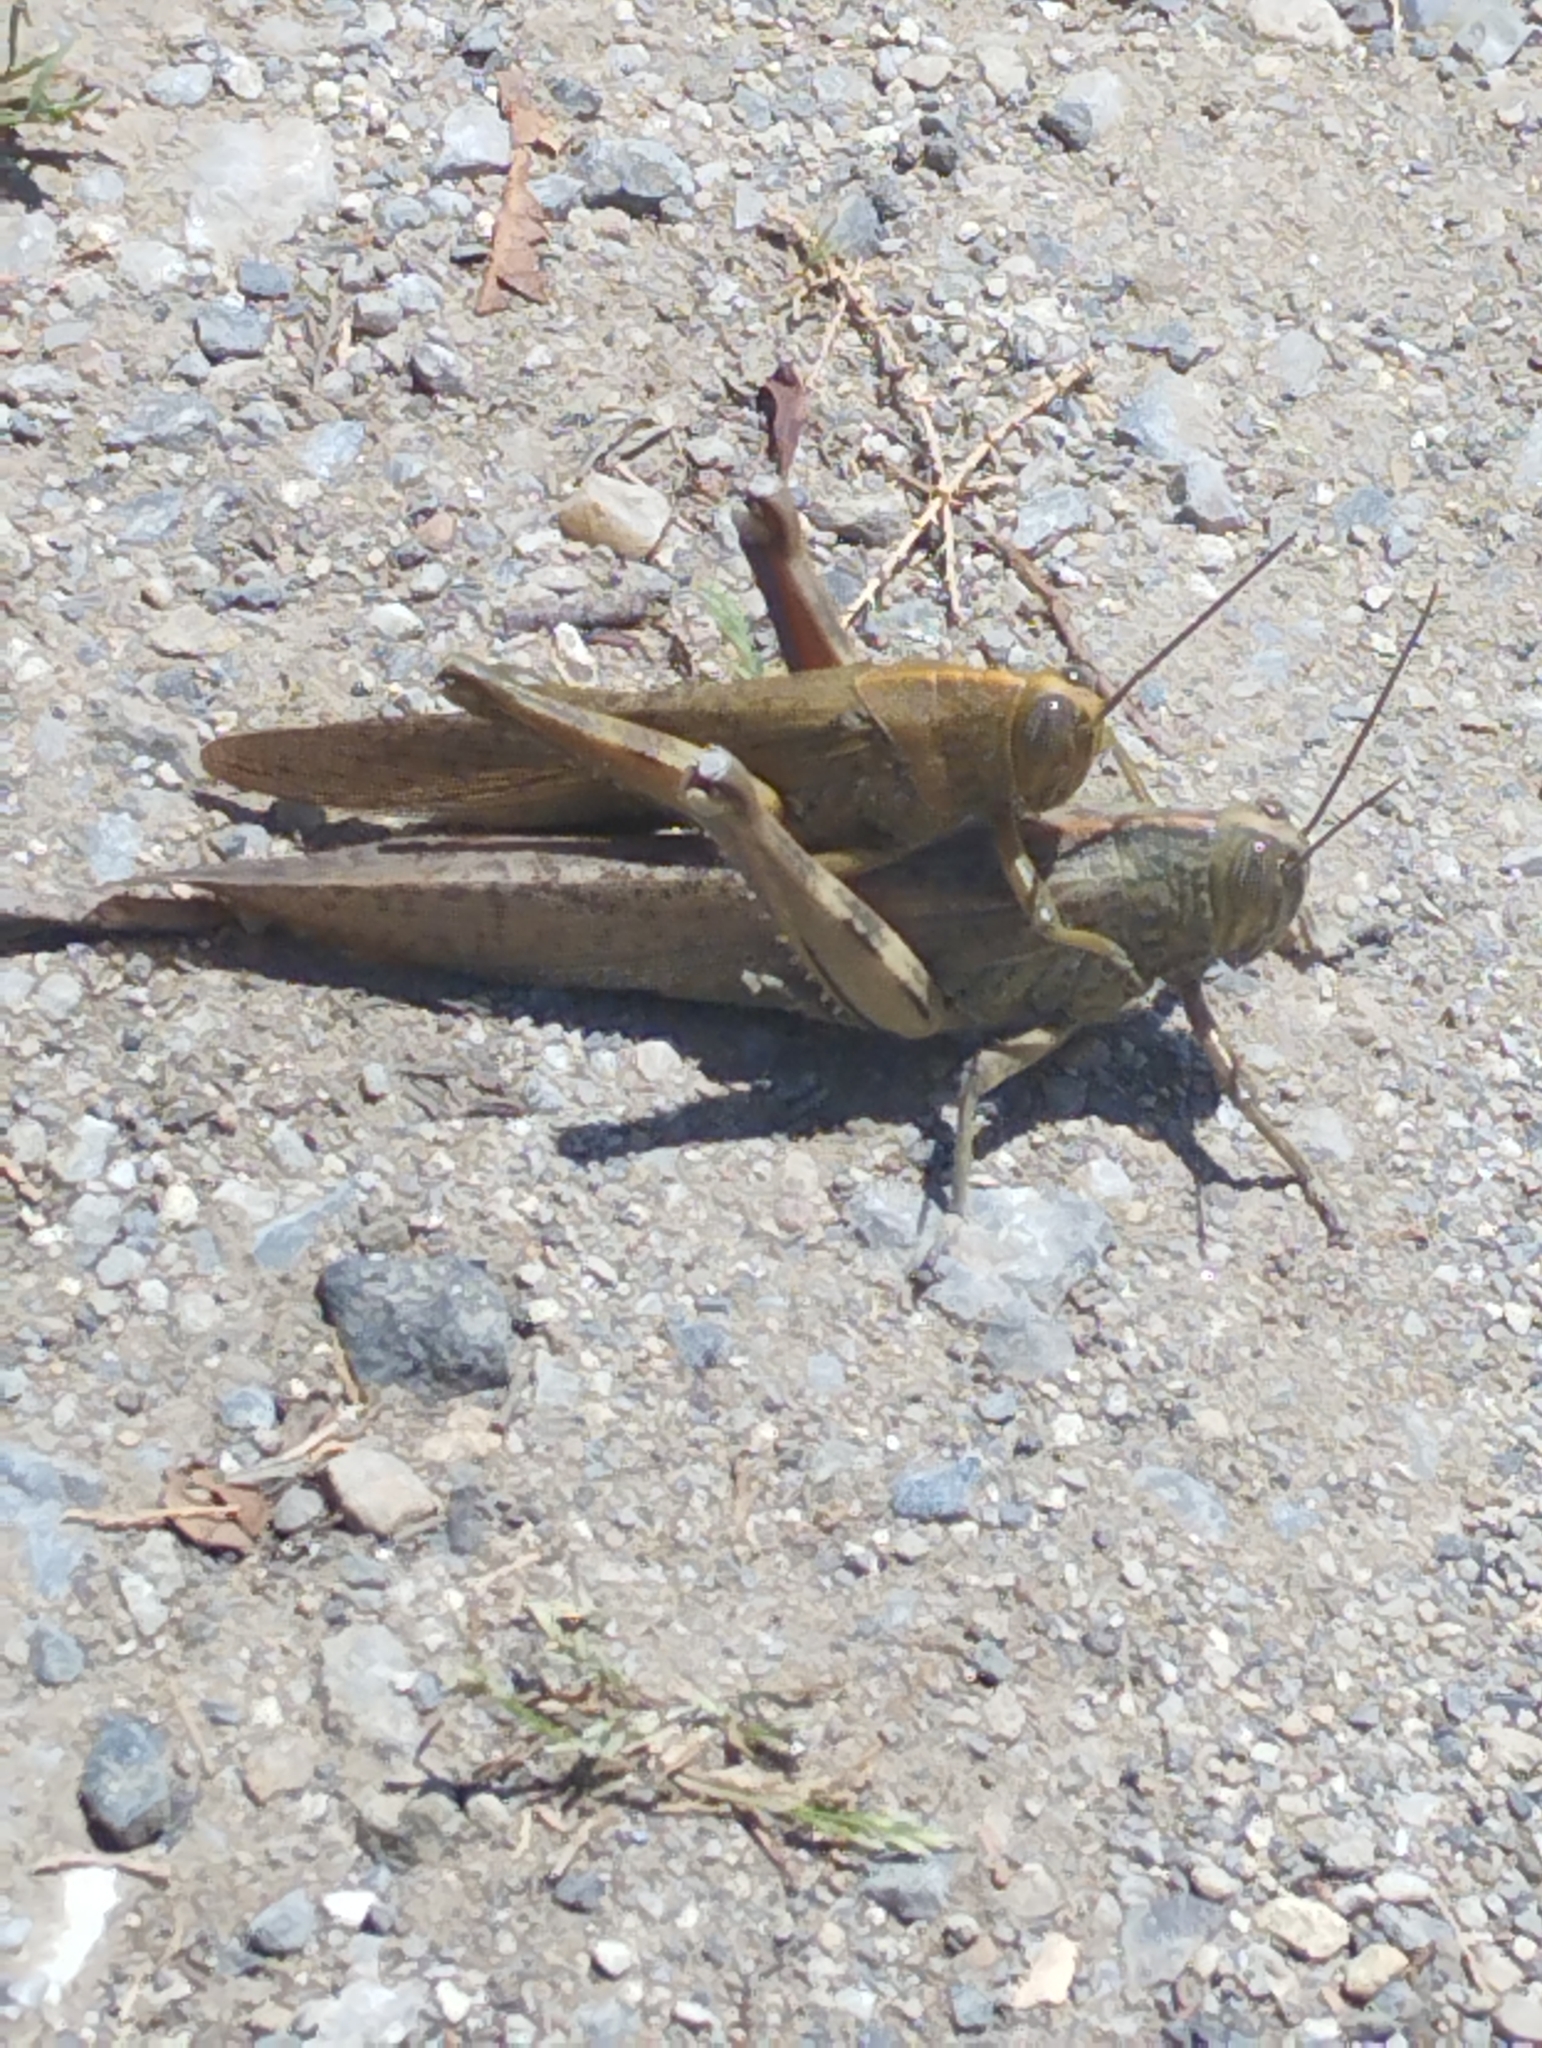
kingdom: Animalia
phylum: Arthropoda
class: Insecta
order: Orthoptera
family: Acrididae
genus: Anacridium
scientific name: Anacridium aegyptium
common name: Egyptian grasshopper
